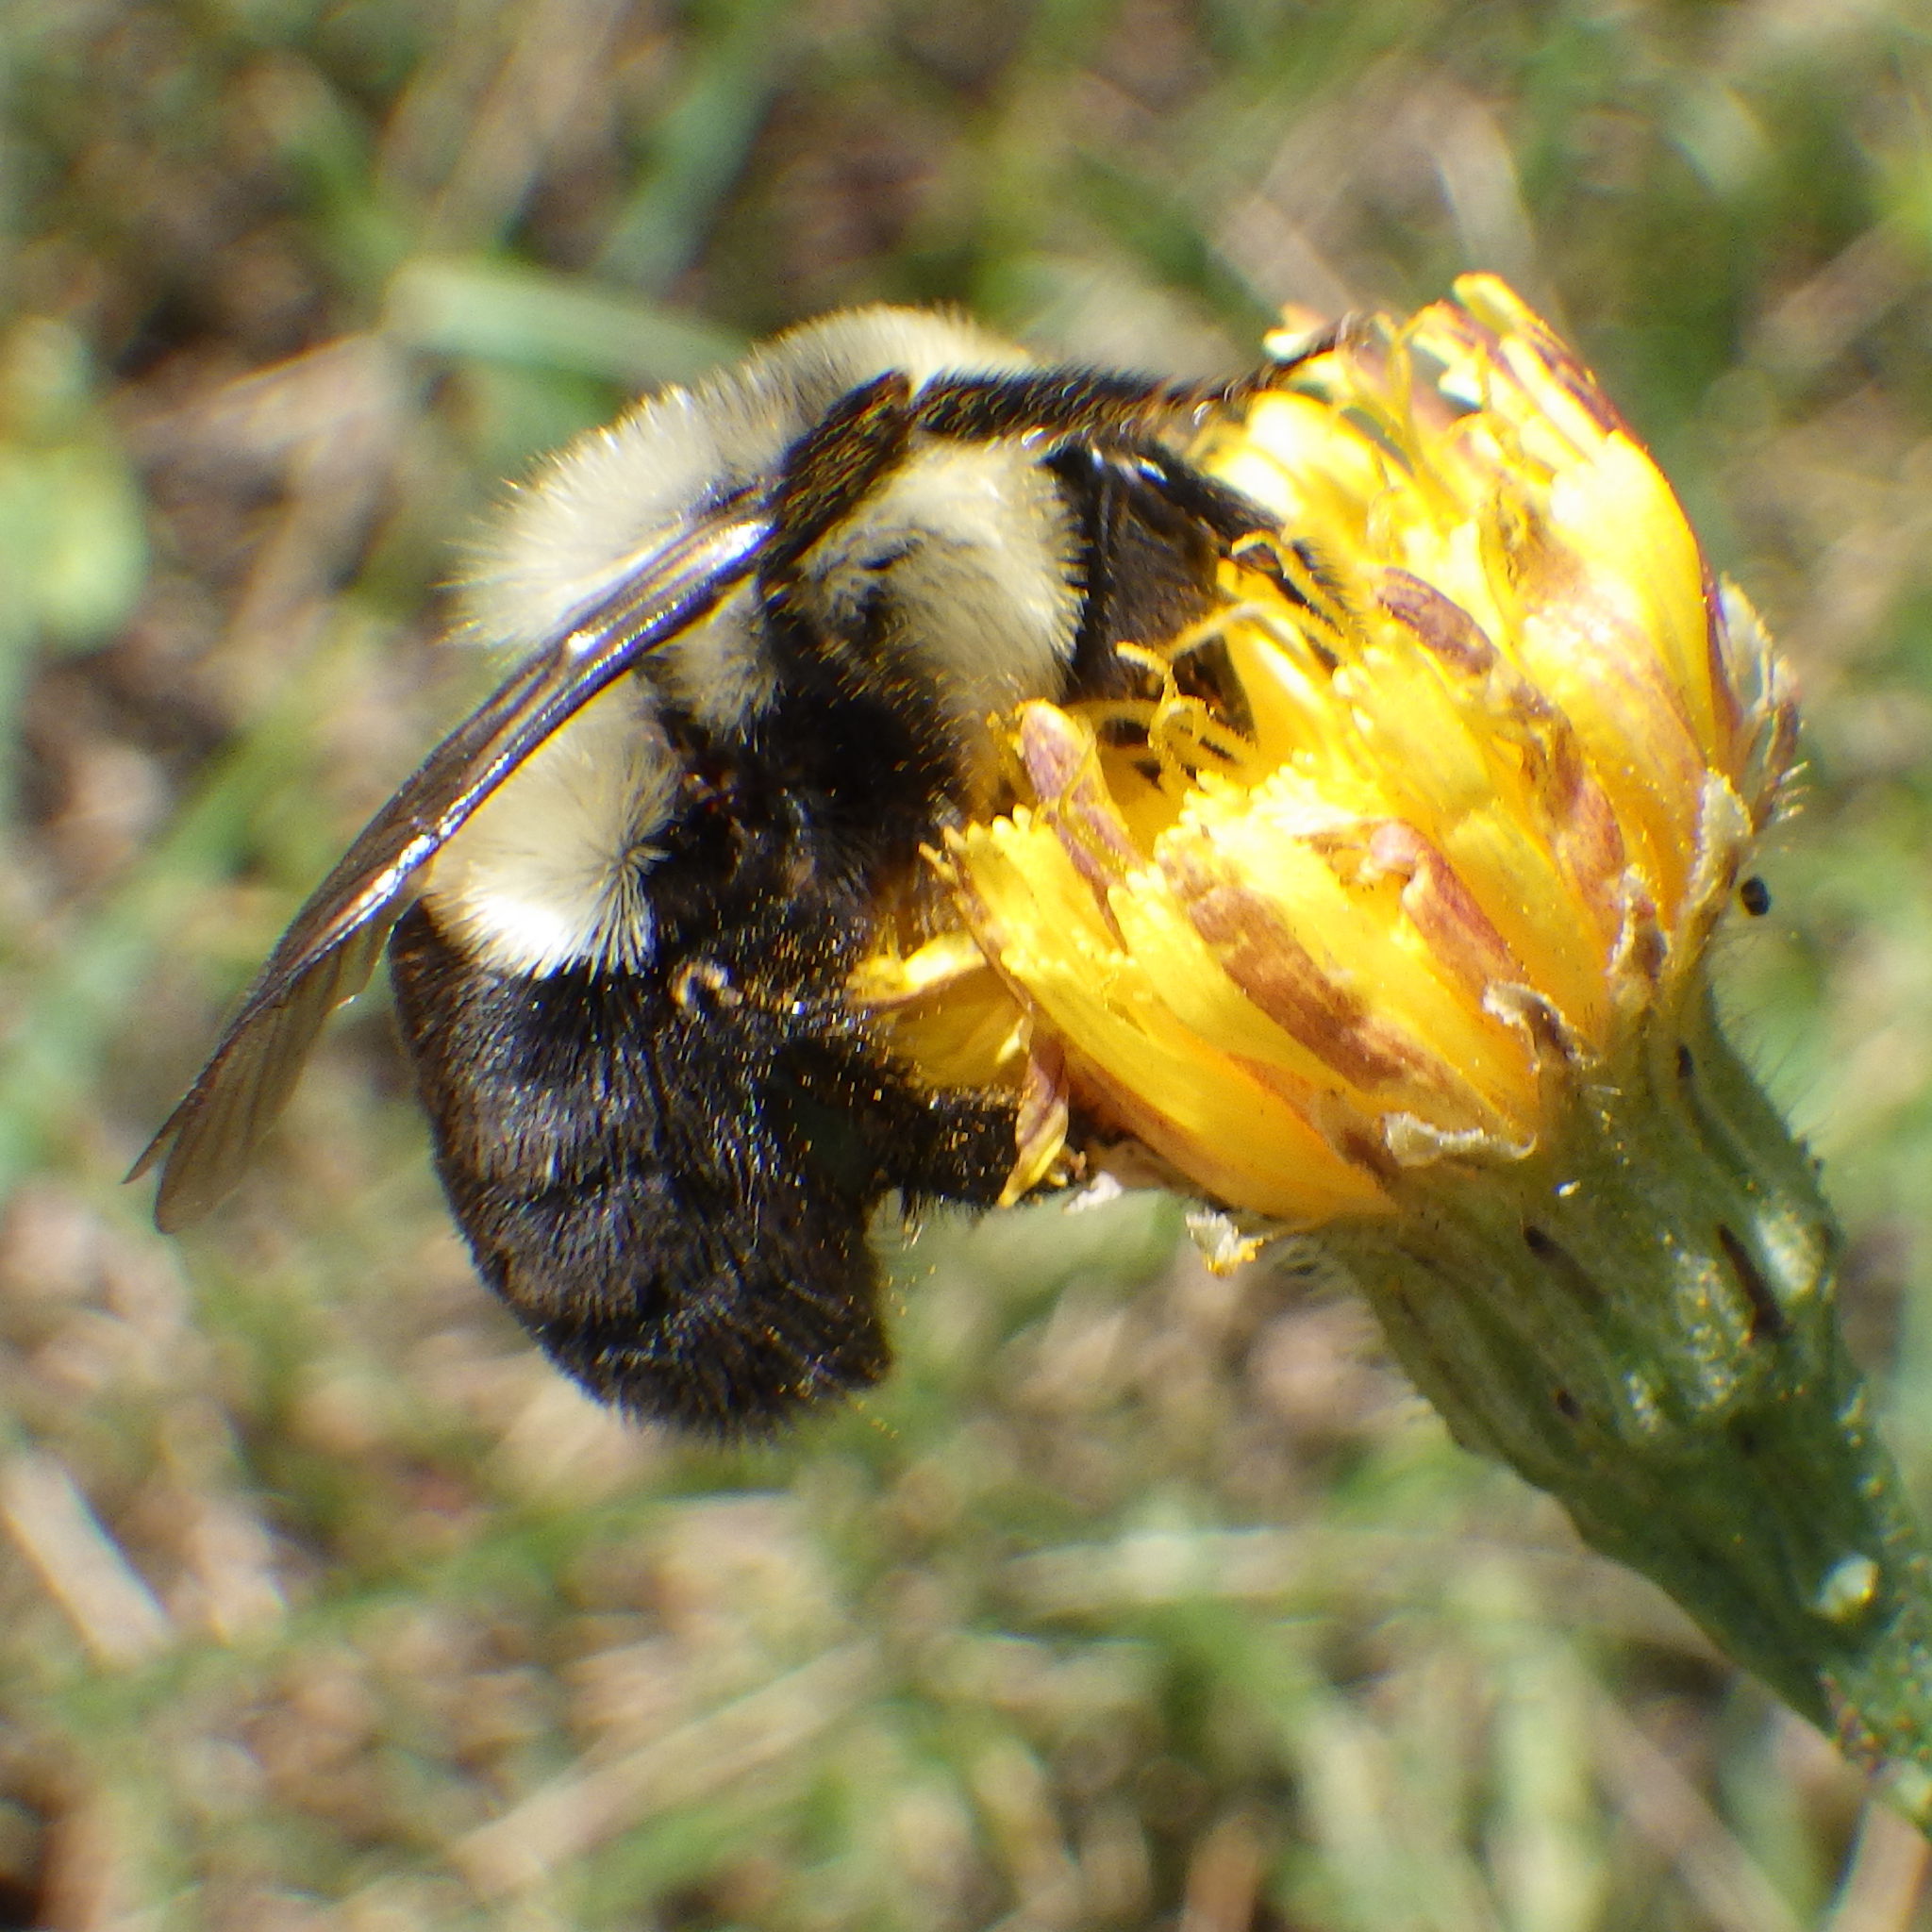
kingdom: Animalia
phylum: Arthropoda
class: Insecta
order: Hymenoptera
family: Apidae
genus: Bombus
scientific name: Bombus impatiens
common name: Common eastern bumble bee
